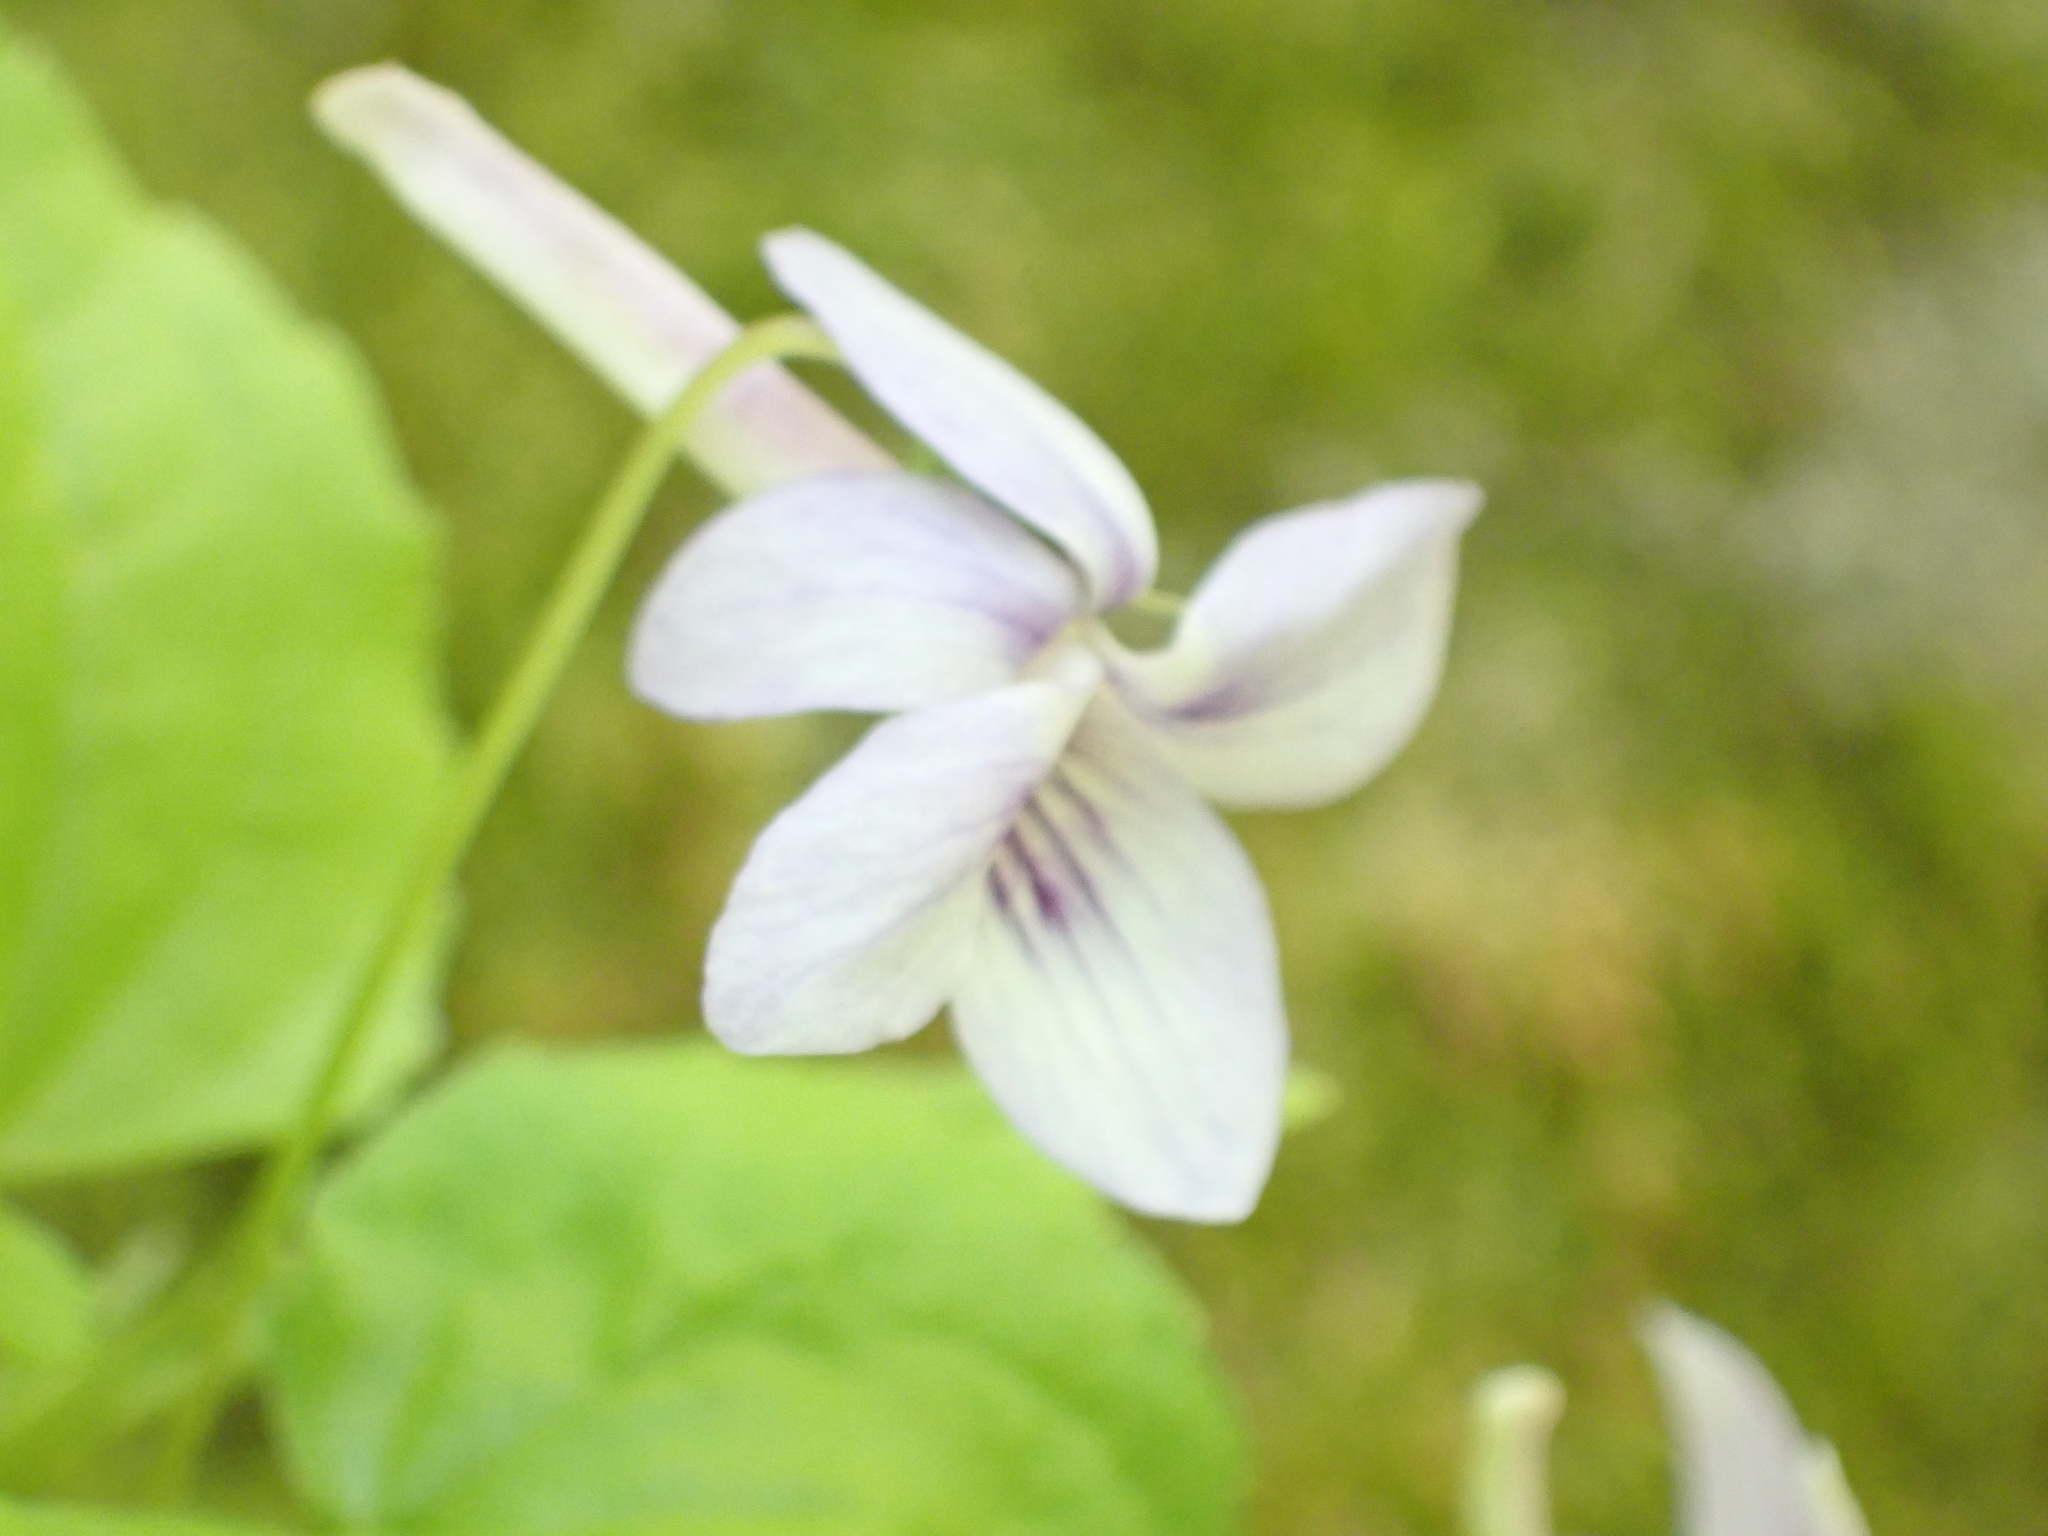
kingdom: Plantae
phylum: Tracheophyta
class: Magnoliopsida
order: Malpighiales
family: Violaceae
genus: Viola
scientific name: Viola rostrata
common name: Long-spur violet
